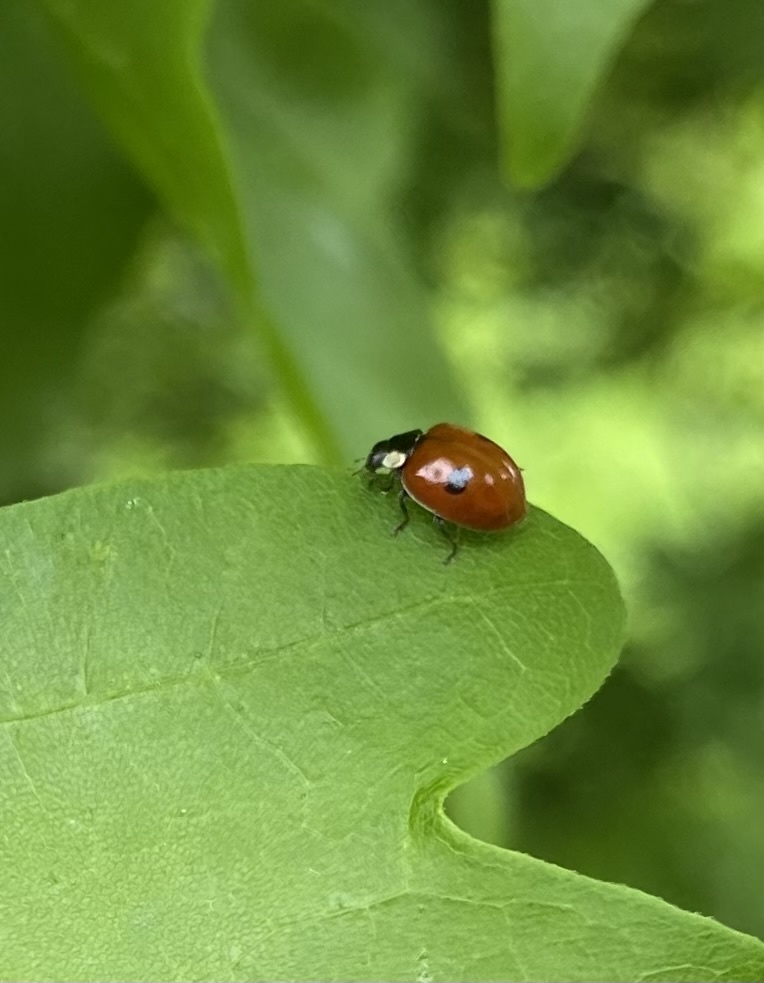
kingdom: Animalia
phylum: Arthropoda
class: Insecta
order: Coleoptera
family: Coccinellidae
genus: Adalia
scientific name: Adalia bipunctata
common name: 2-spot ladybird
